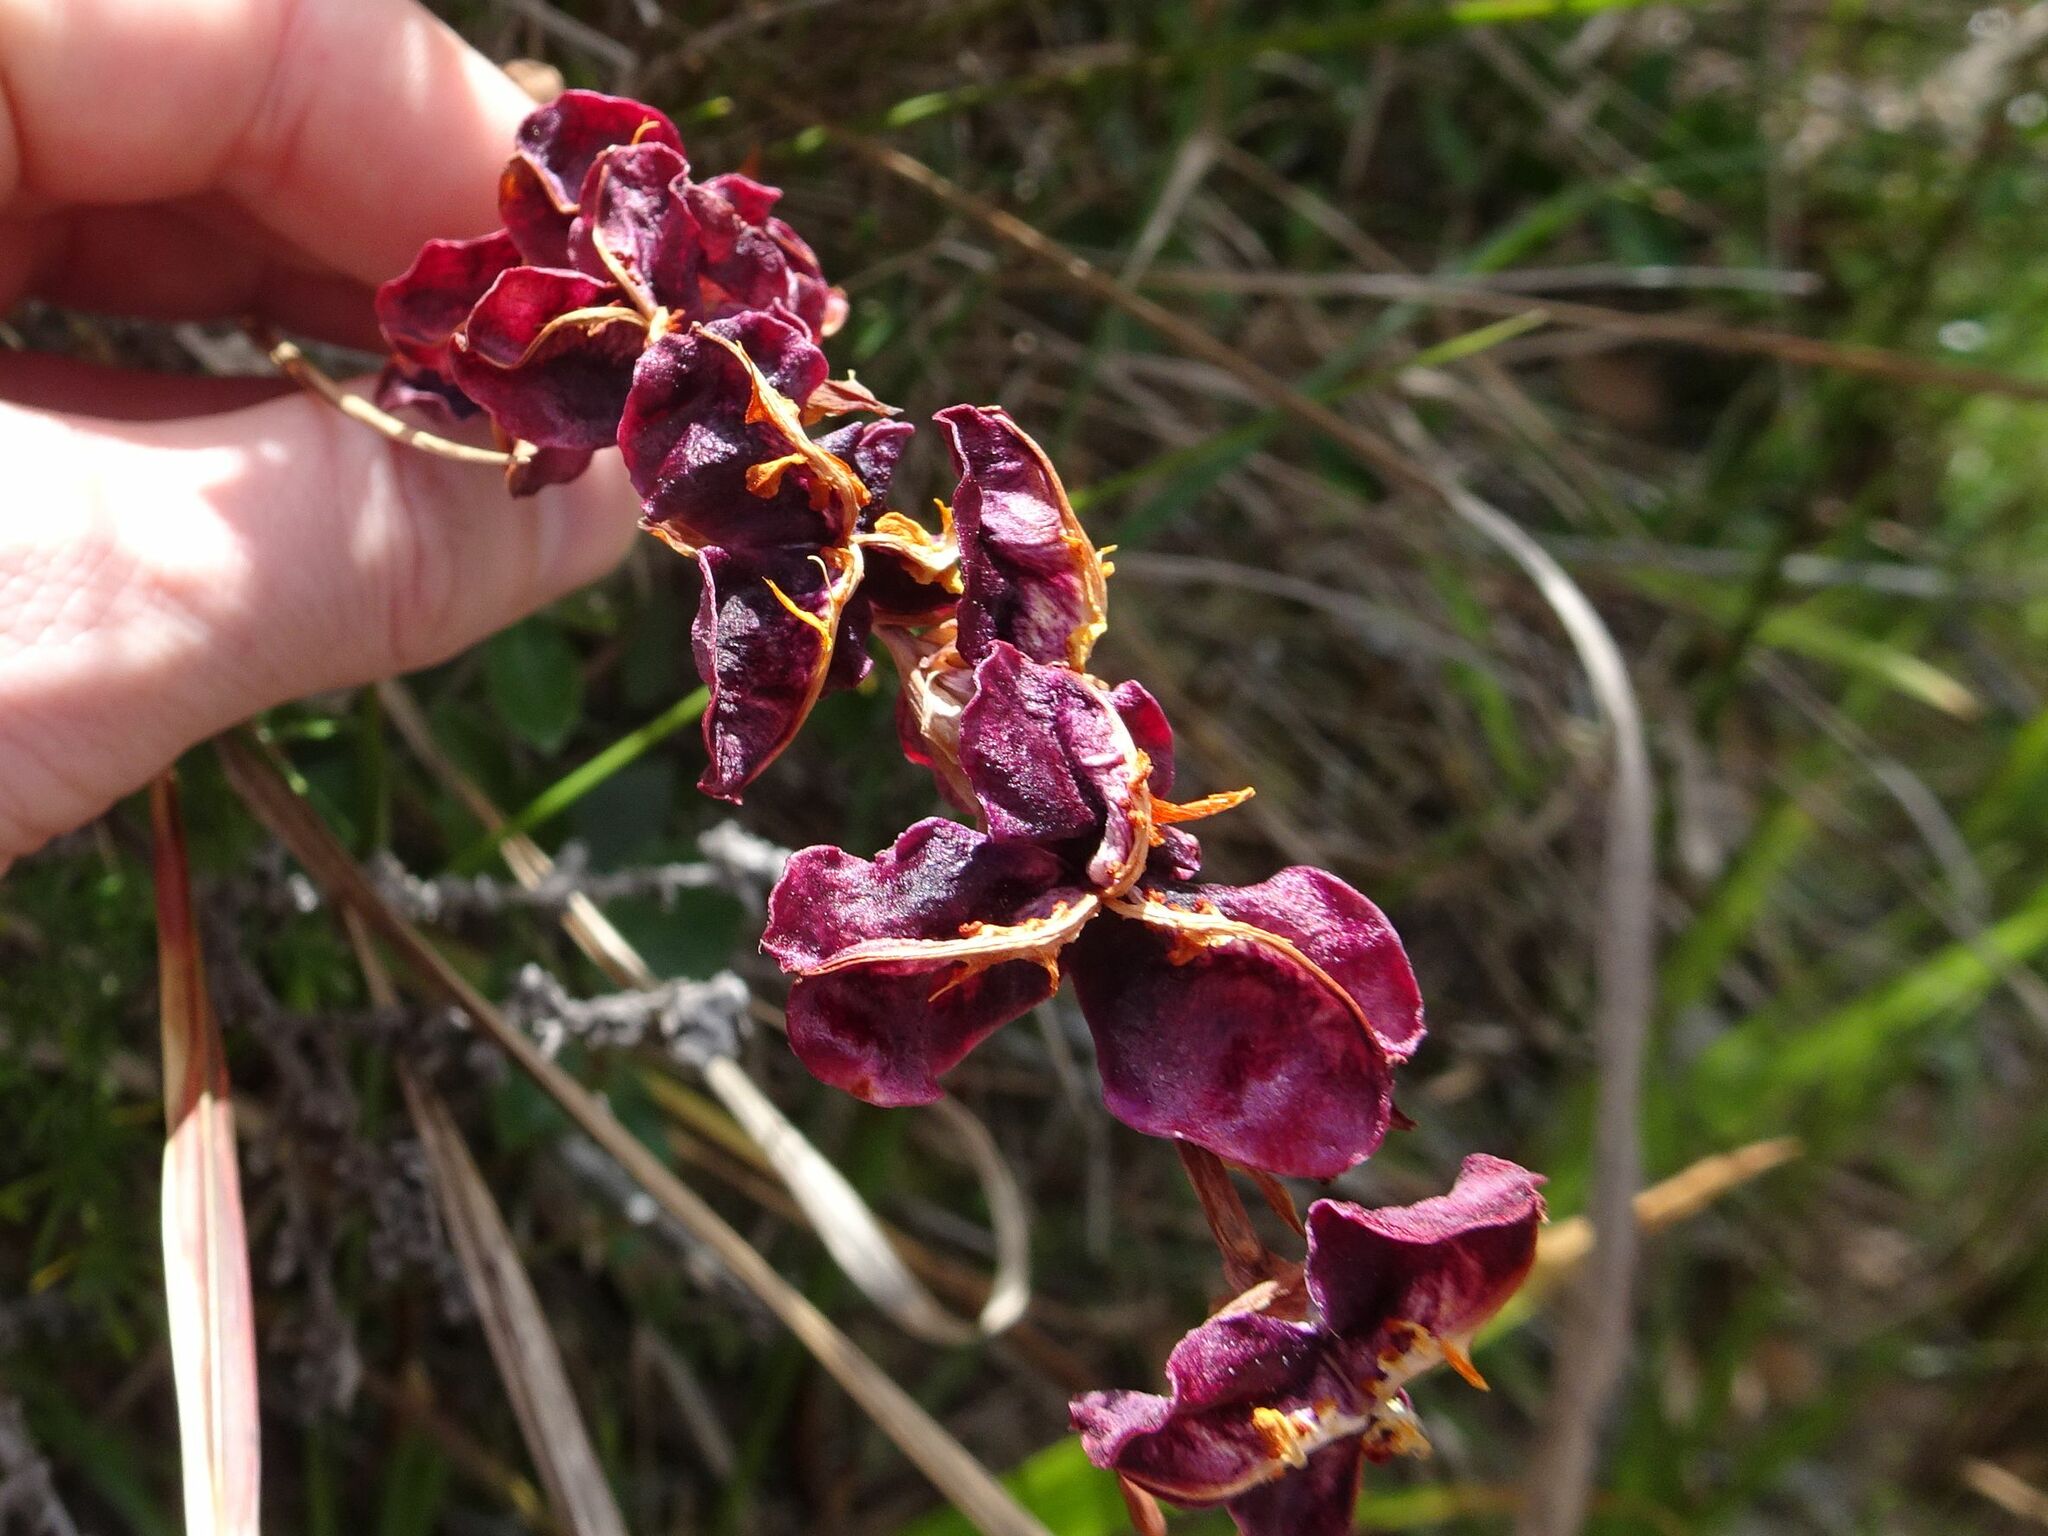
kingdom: Plantae
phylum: Tracheophyta
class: Liliopsida
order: Asparagales
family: Iridaceae
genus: Chasmanthe
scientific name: Chasmanthe aethiopica
